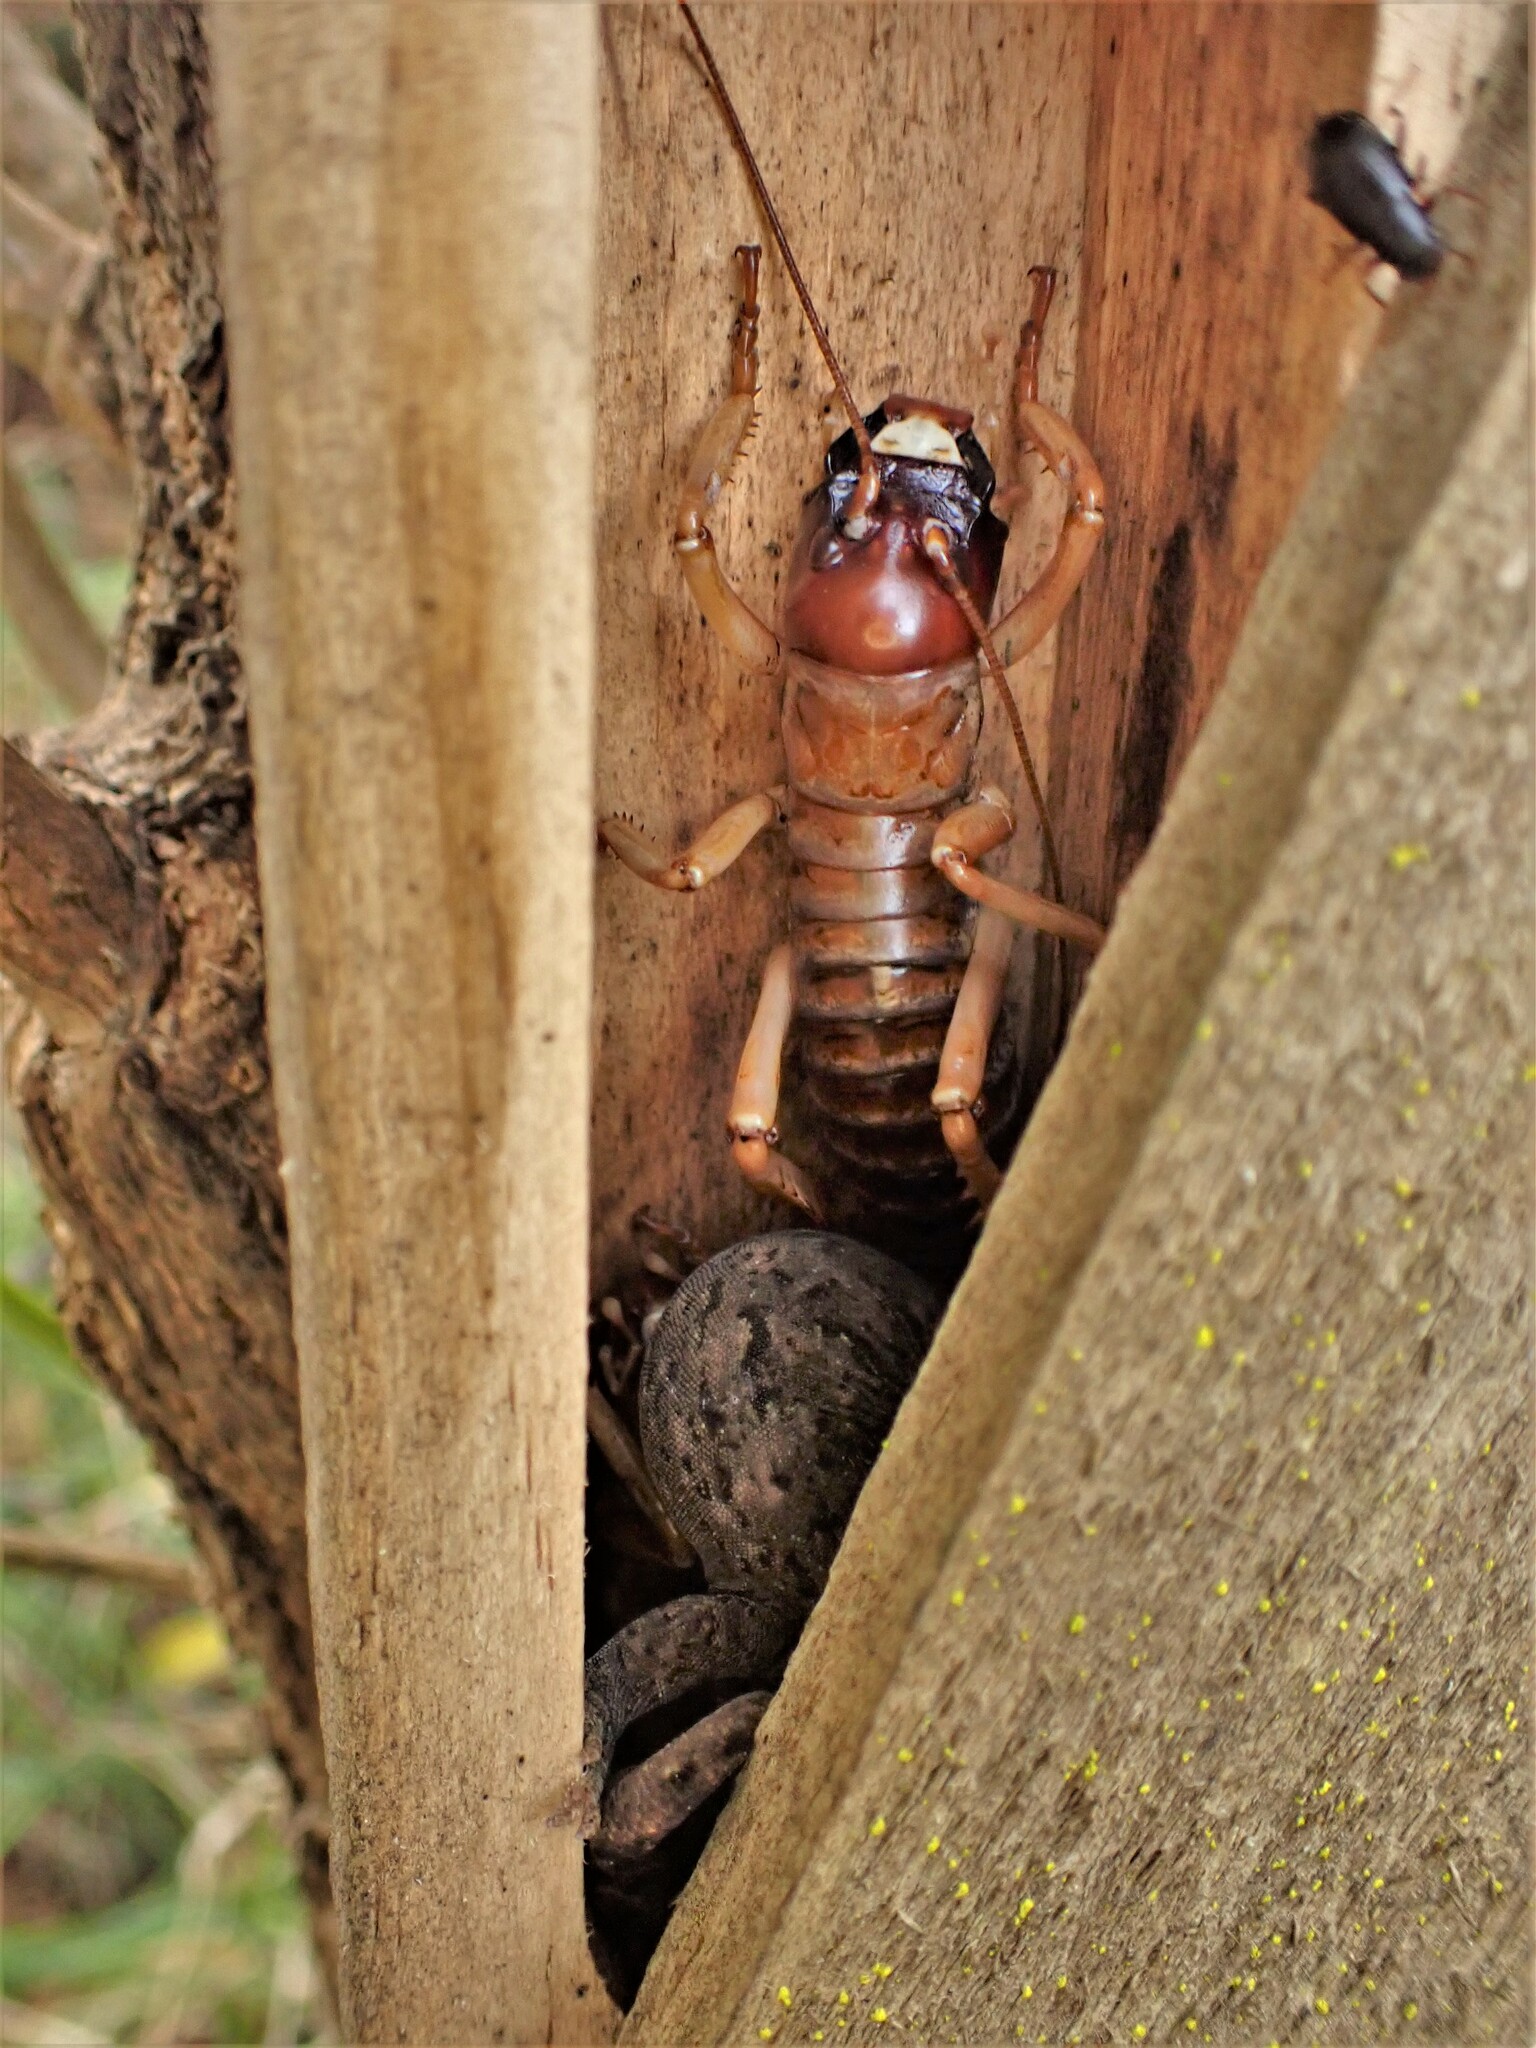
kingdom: Animalia
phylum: Arthropoda
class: Insecta
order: Orthoptera
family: Anostostomatidae
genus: Hemideina
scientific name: Hemideina ricta
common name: Banks peninsula tree weta
